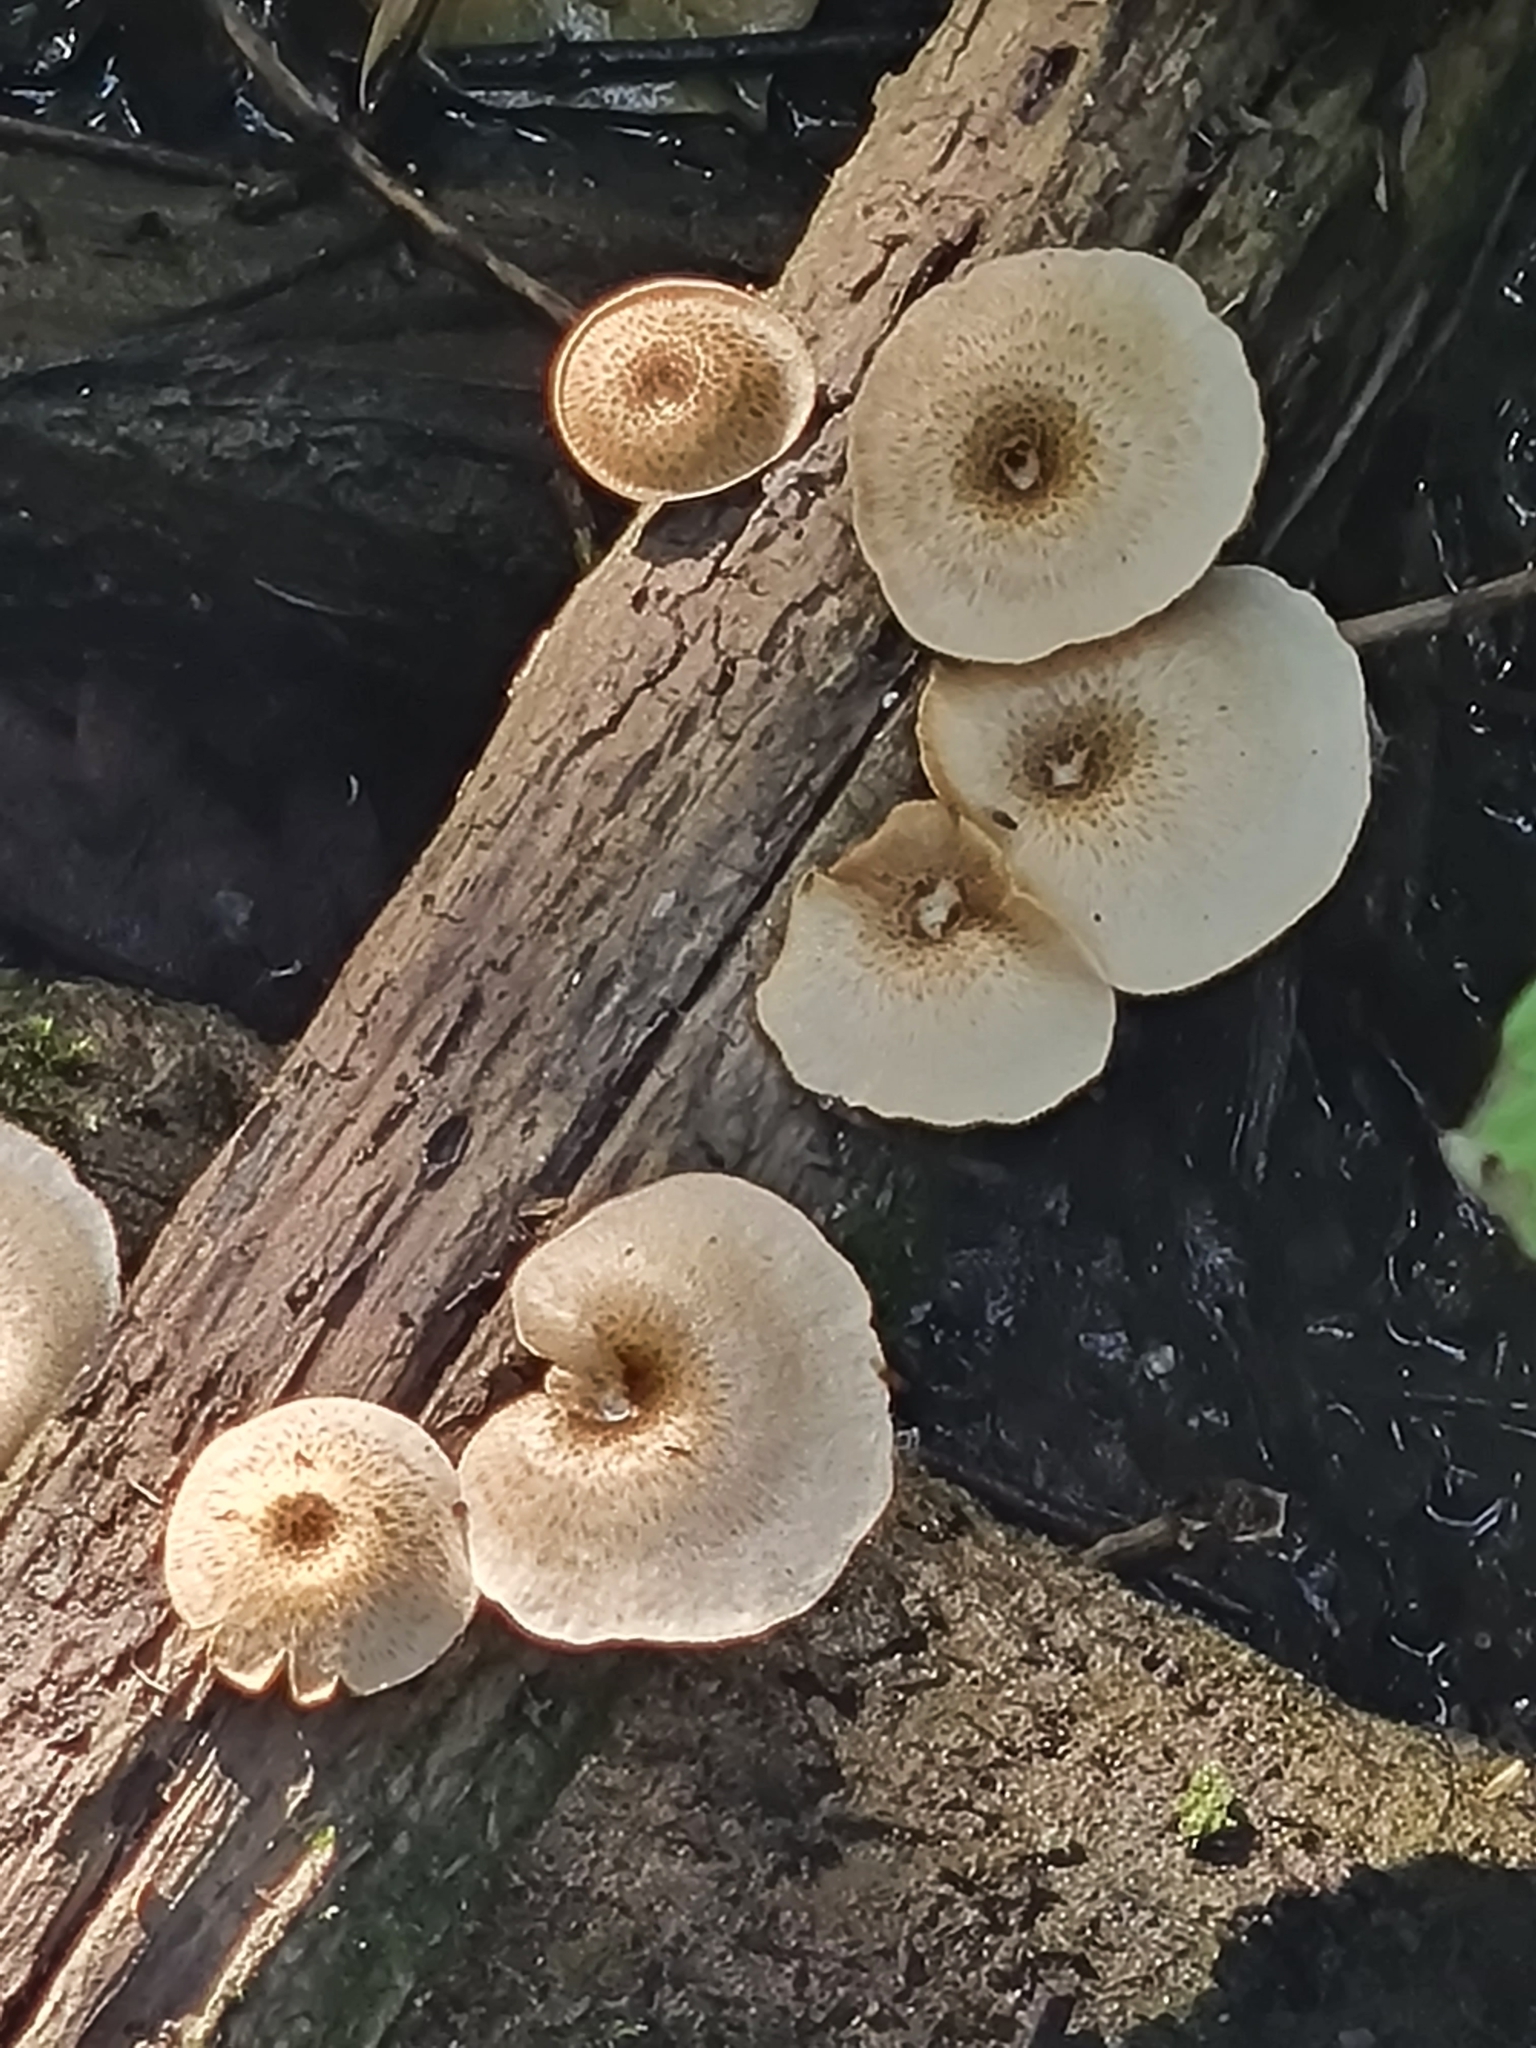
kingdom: Fungi
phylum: Basidiomycota
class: Agaricomycetes
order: Polyporales
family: Polyporaceae
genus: Lentinus
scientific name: Lentinus tigrinus
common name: Tiger sawgill
